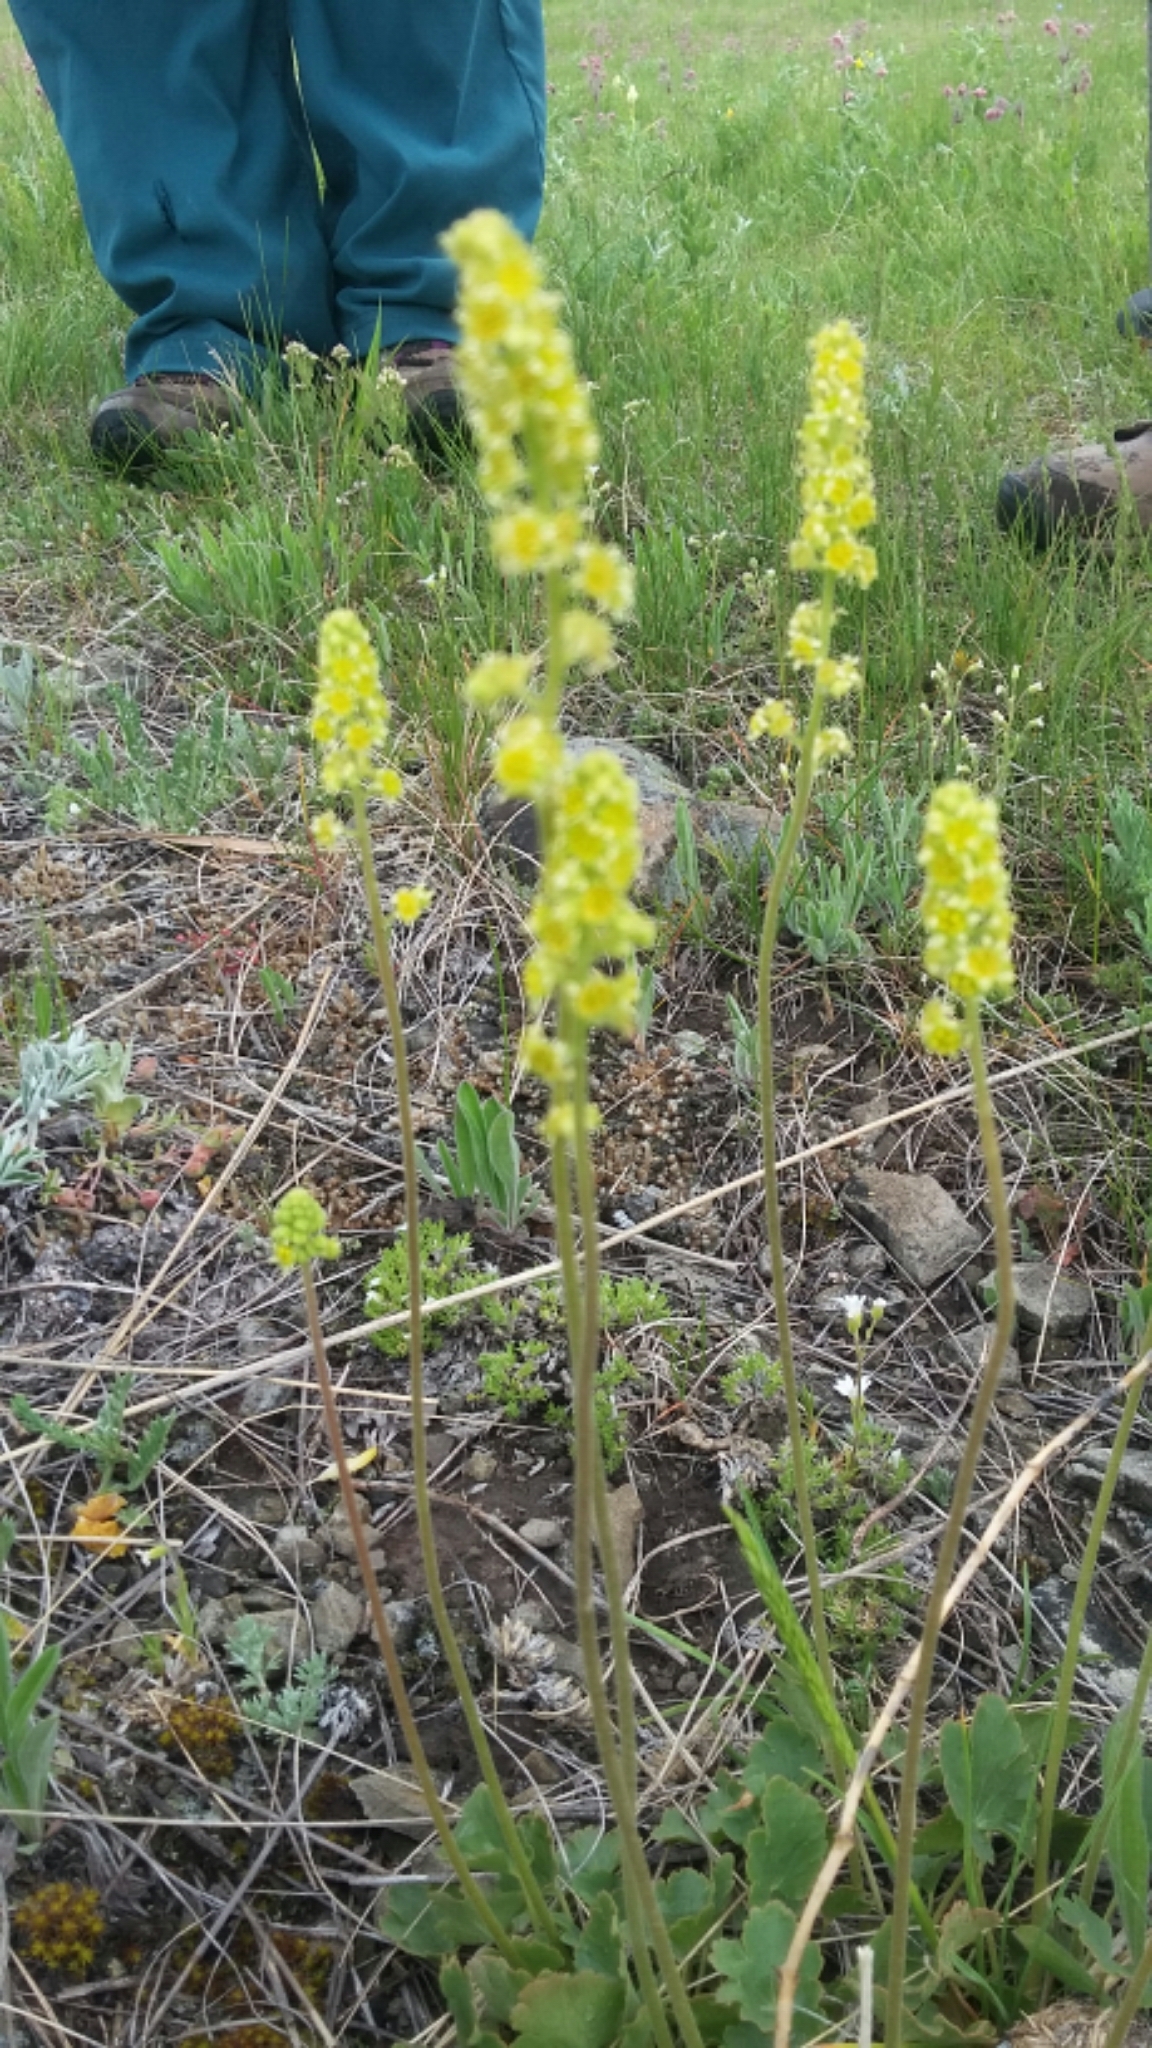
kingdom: Plantae
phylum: Tracheophyta
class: Magnoliopsida
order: Saxifragales
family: Saxifragaceae
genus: Heuchera
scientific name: Heuchera parvifolia
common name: Common alumroot
